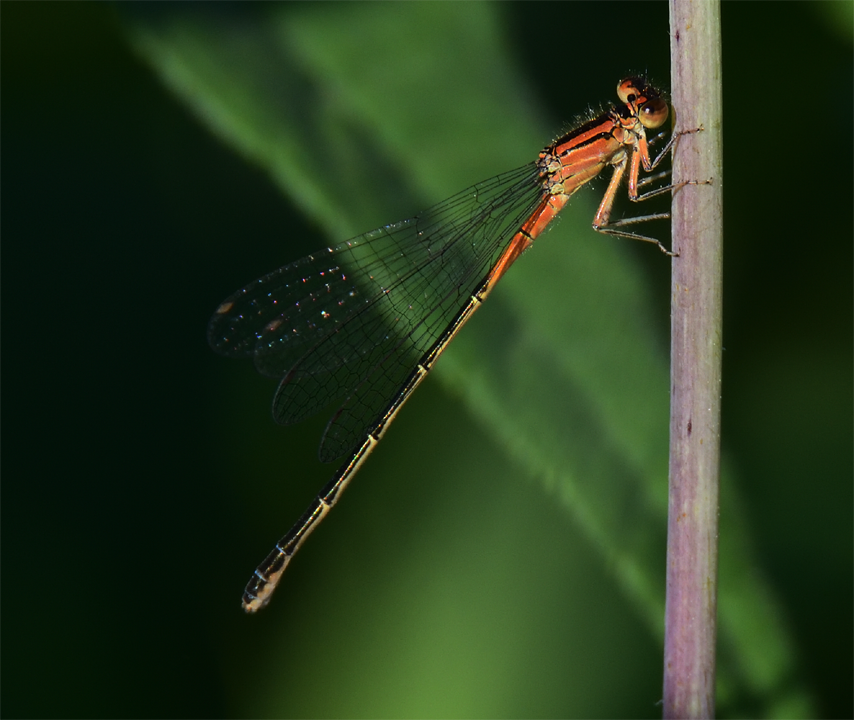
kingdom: Animalia
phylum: Arthropoda
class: Insecta
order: Odonata
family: Coenagrionidae
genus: Ischnura
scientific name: Ischnura verticalis
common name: Eastern forktail
